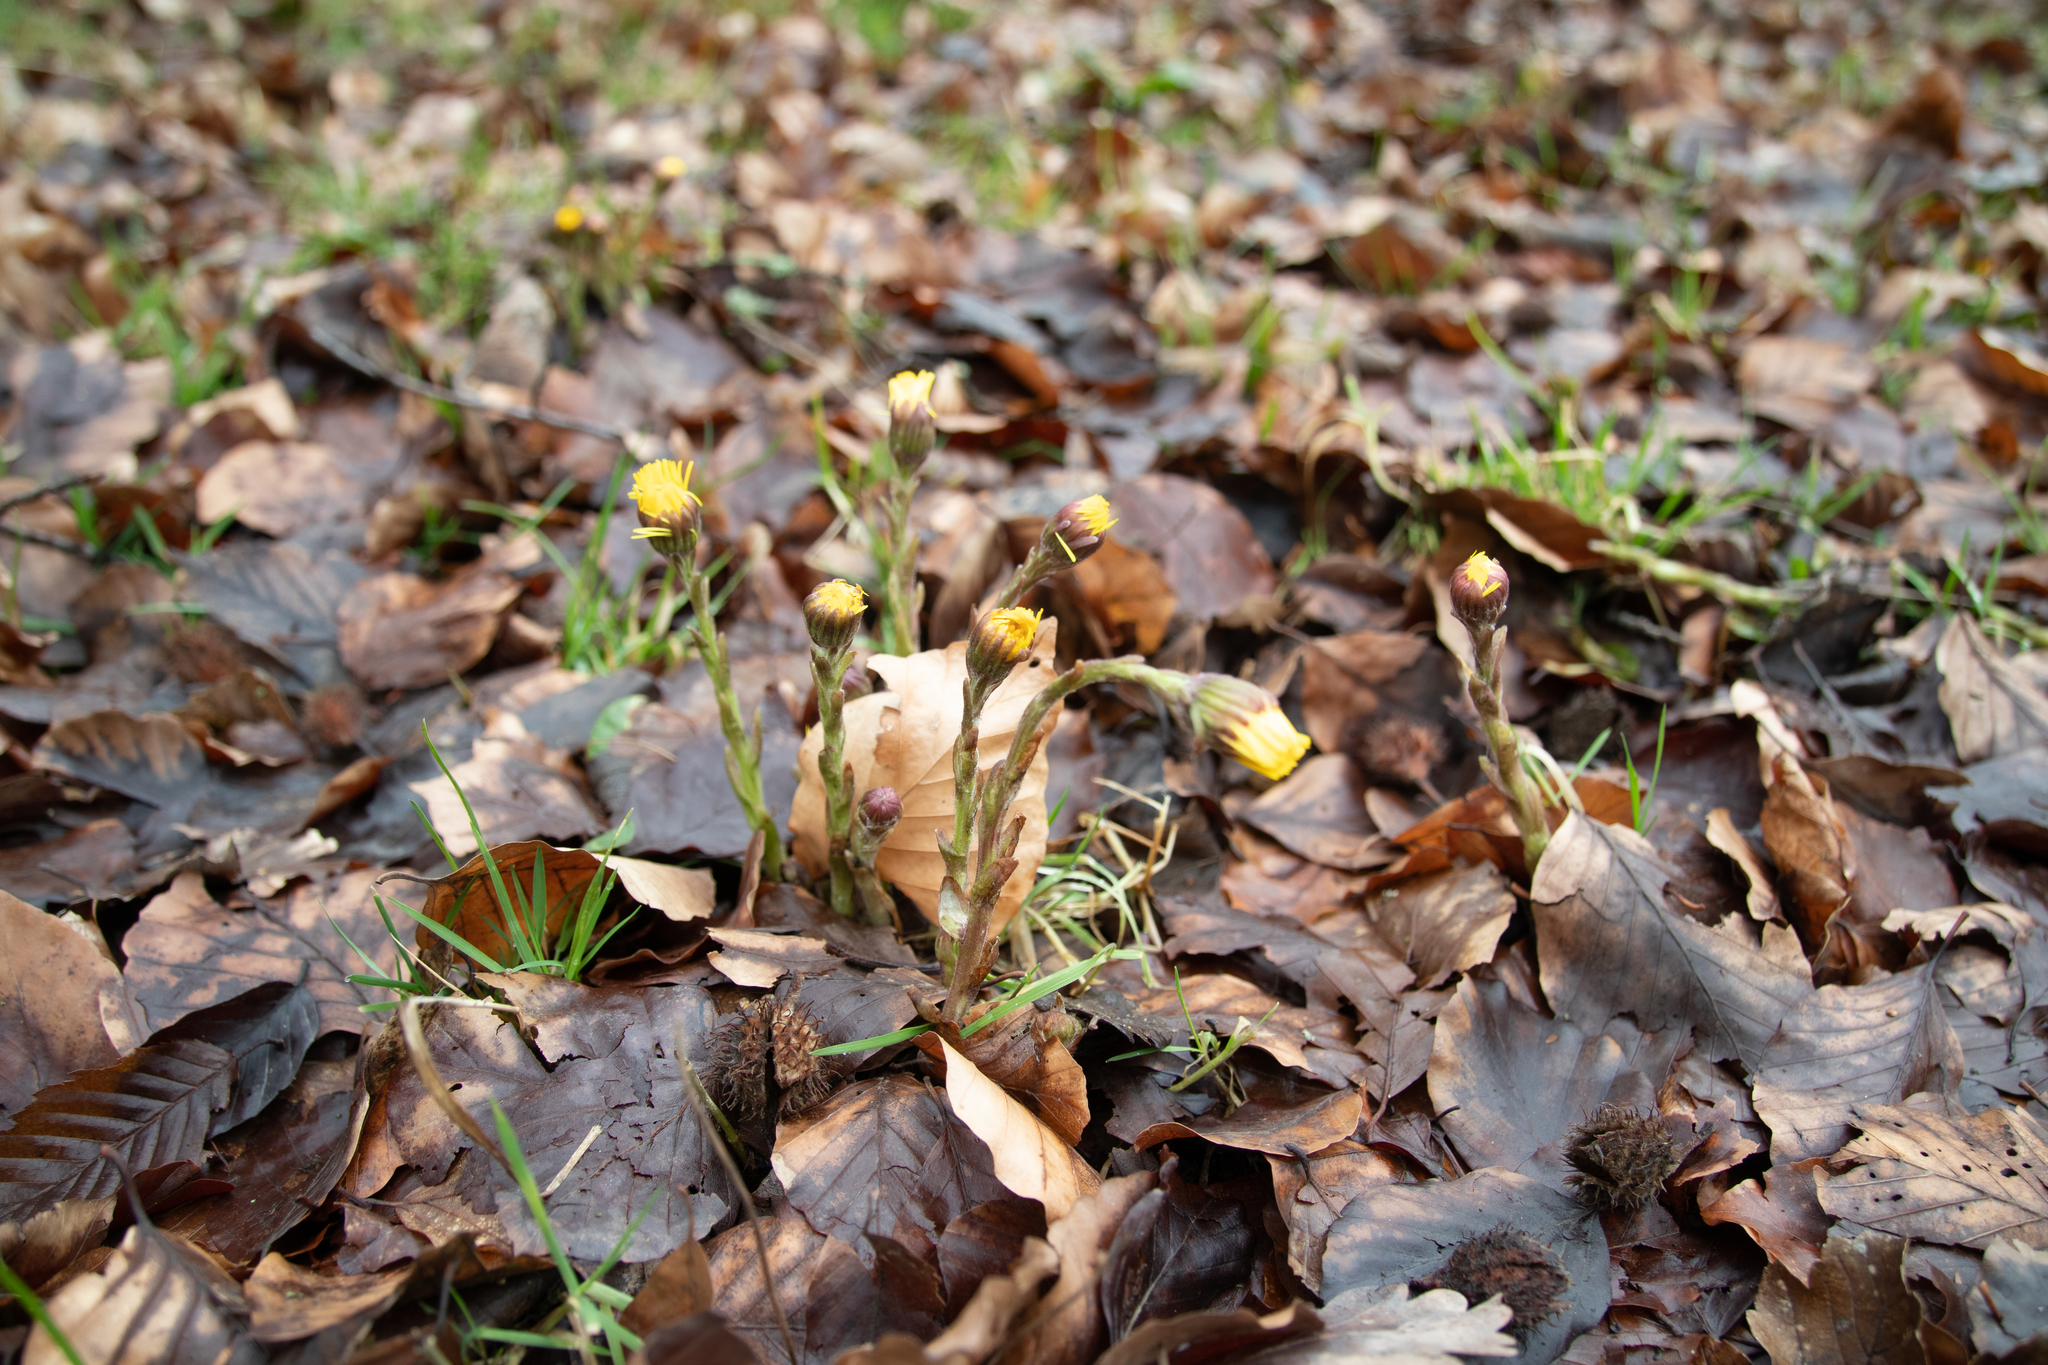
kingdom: Plantae
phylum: Tracheophyta
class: Magnoliopsida
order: Asterales
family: Asteraceae
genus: Tussilago
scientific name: Tussilago farfara
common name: Coltsfoot
